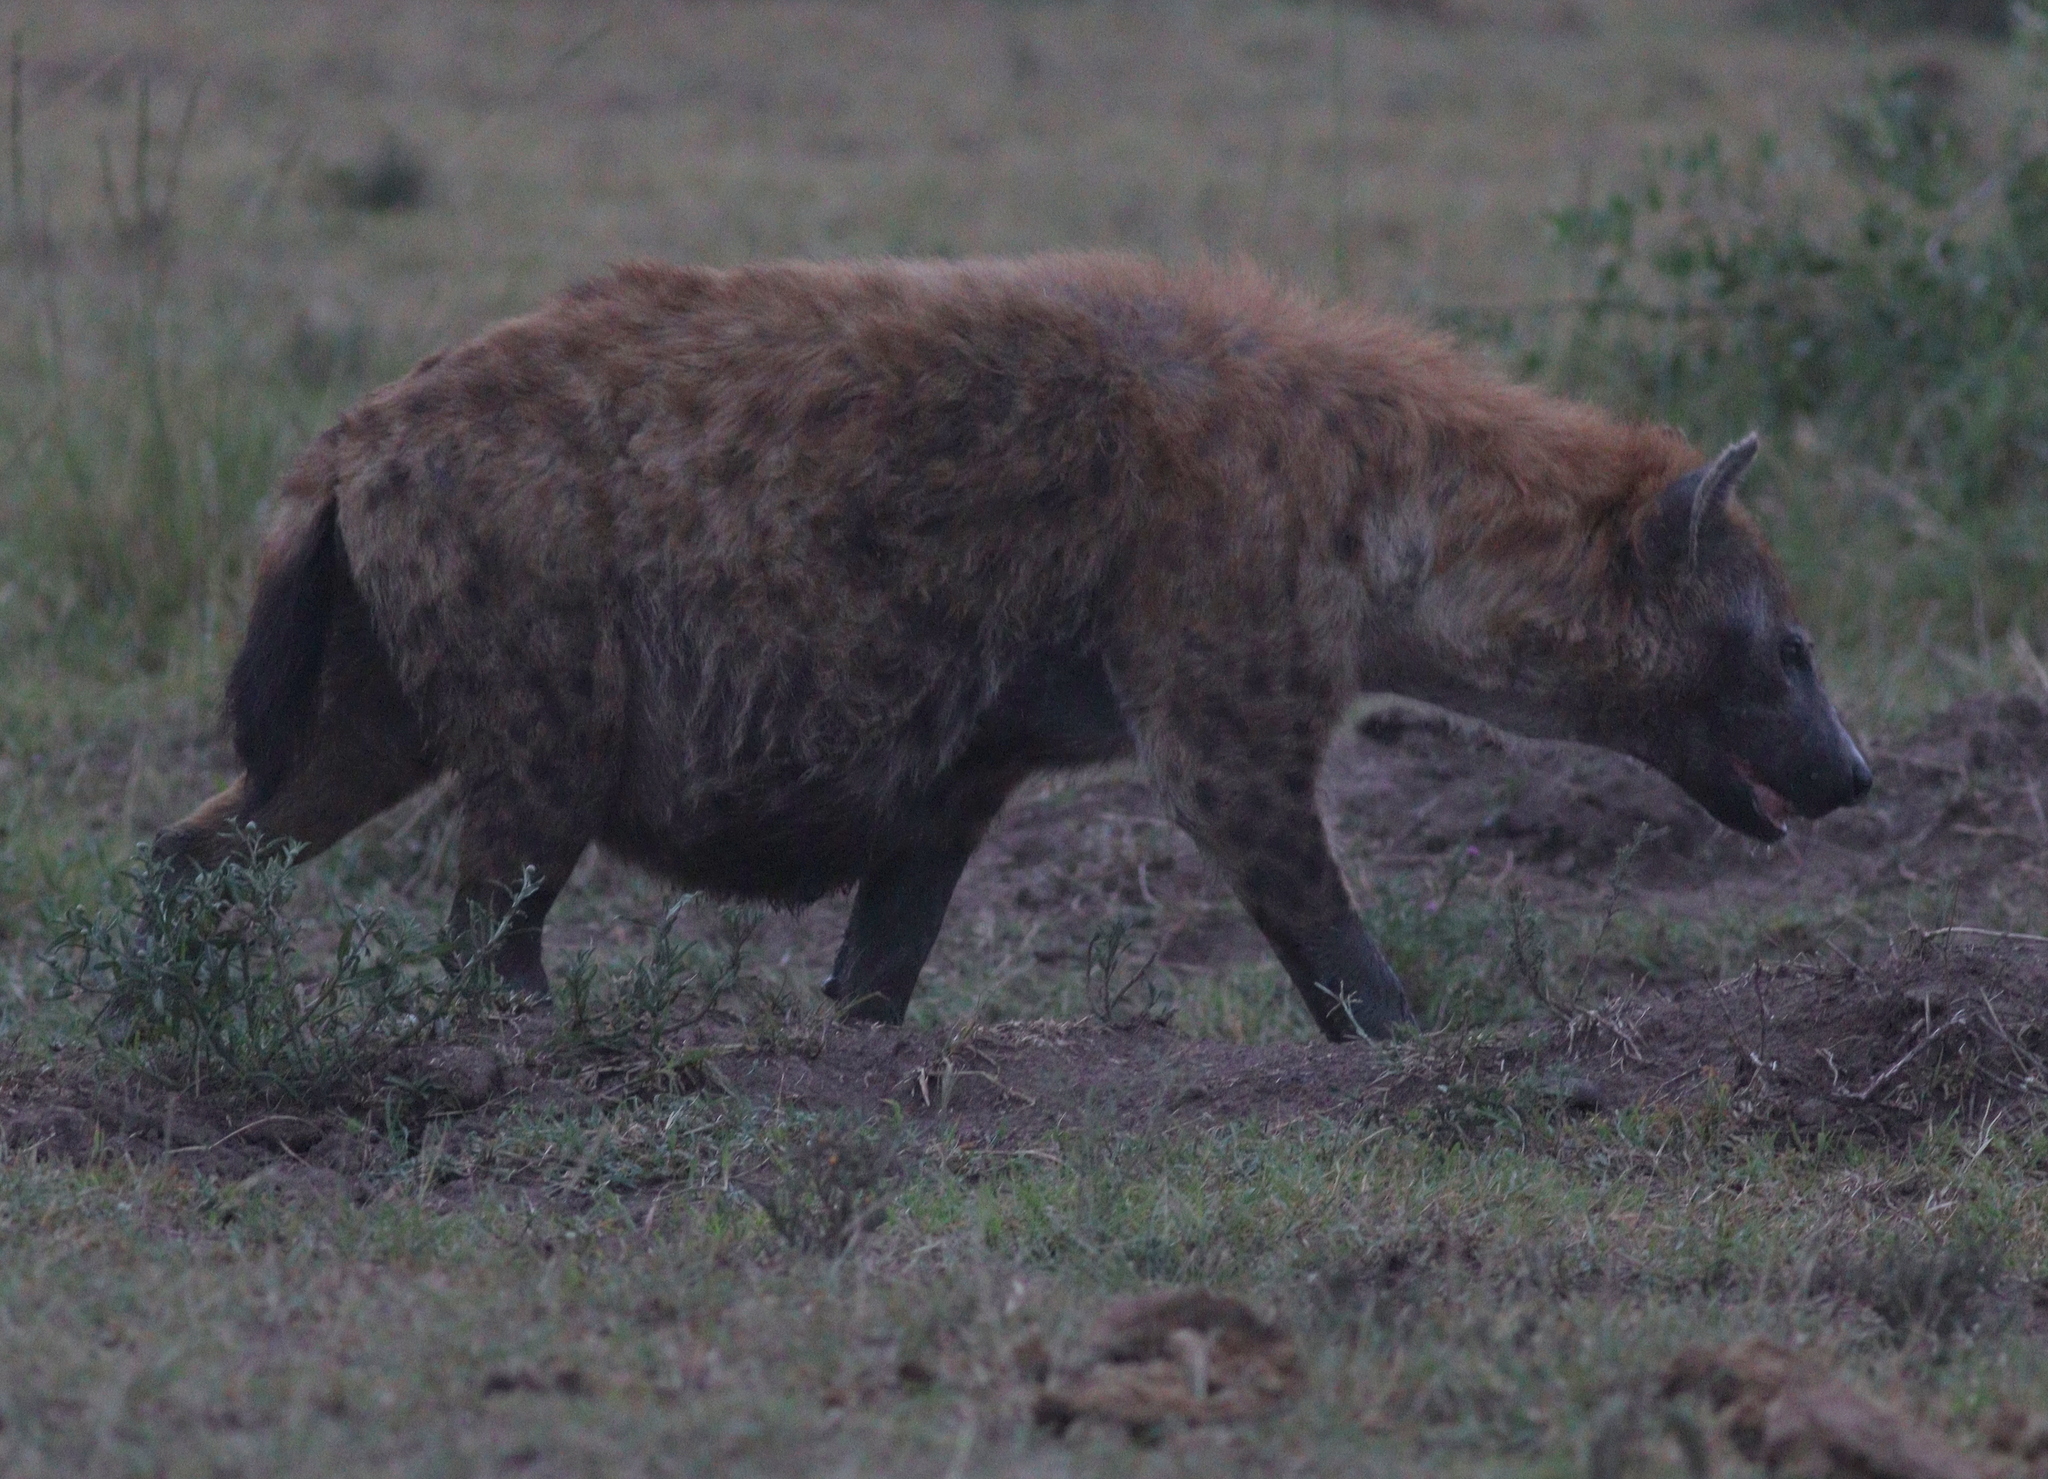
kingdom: Animalia
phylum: Chordata
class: Mammalia
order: Carnivora
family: Hyaenidae
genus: Crocuta
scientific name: Crocuta crocuta
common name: Spotted hyaena
